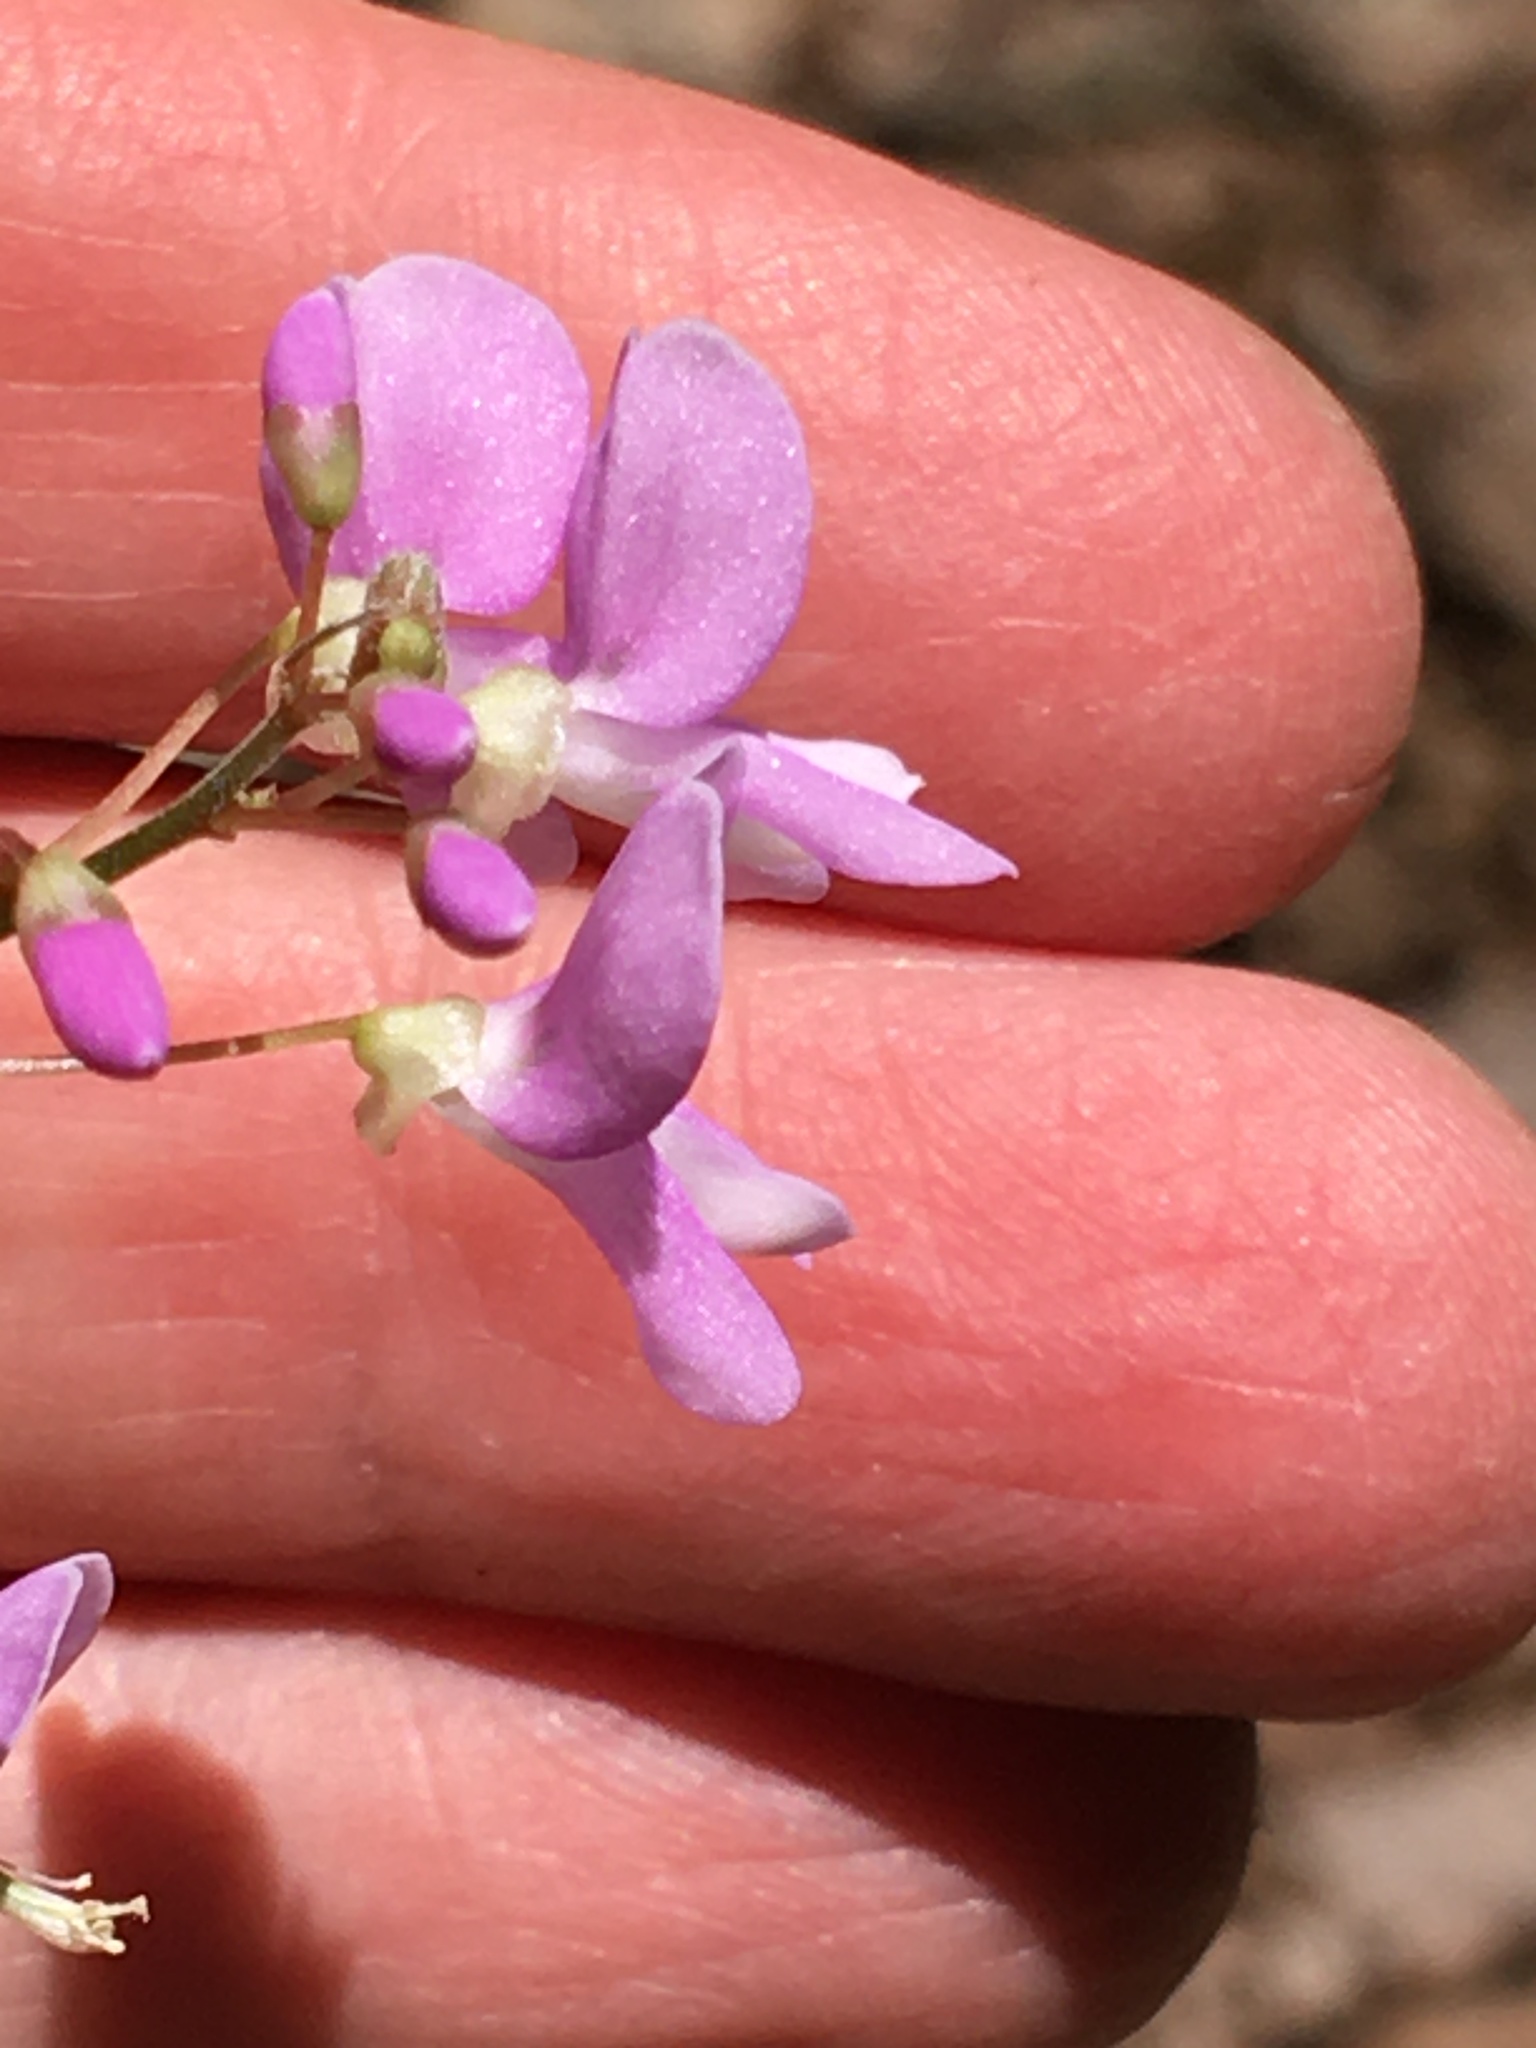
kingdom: Plantae
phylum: Tracheophyta
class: Magnoliopsida
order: Fabales
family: Fabaceae
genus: Hylodesmum
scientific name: Hylodesmum nudiflorum
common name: Bare-stemmed tick-trefoil
